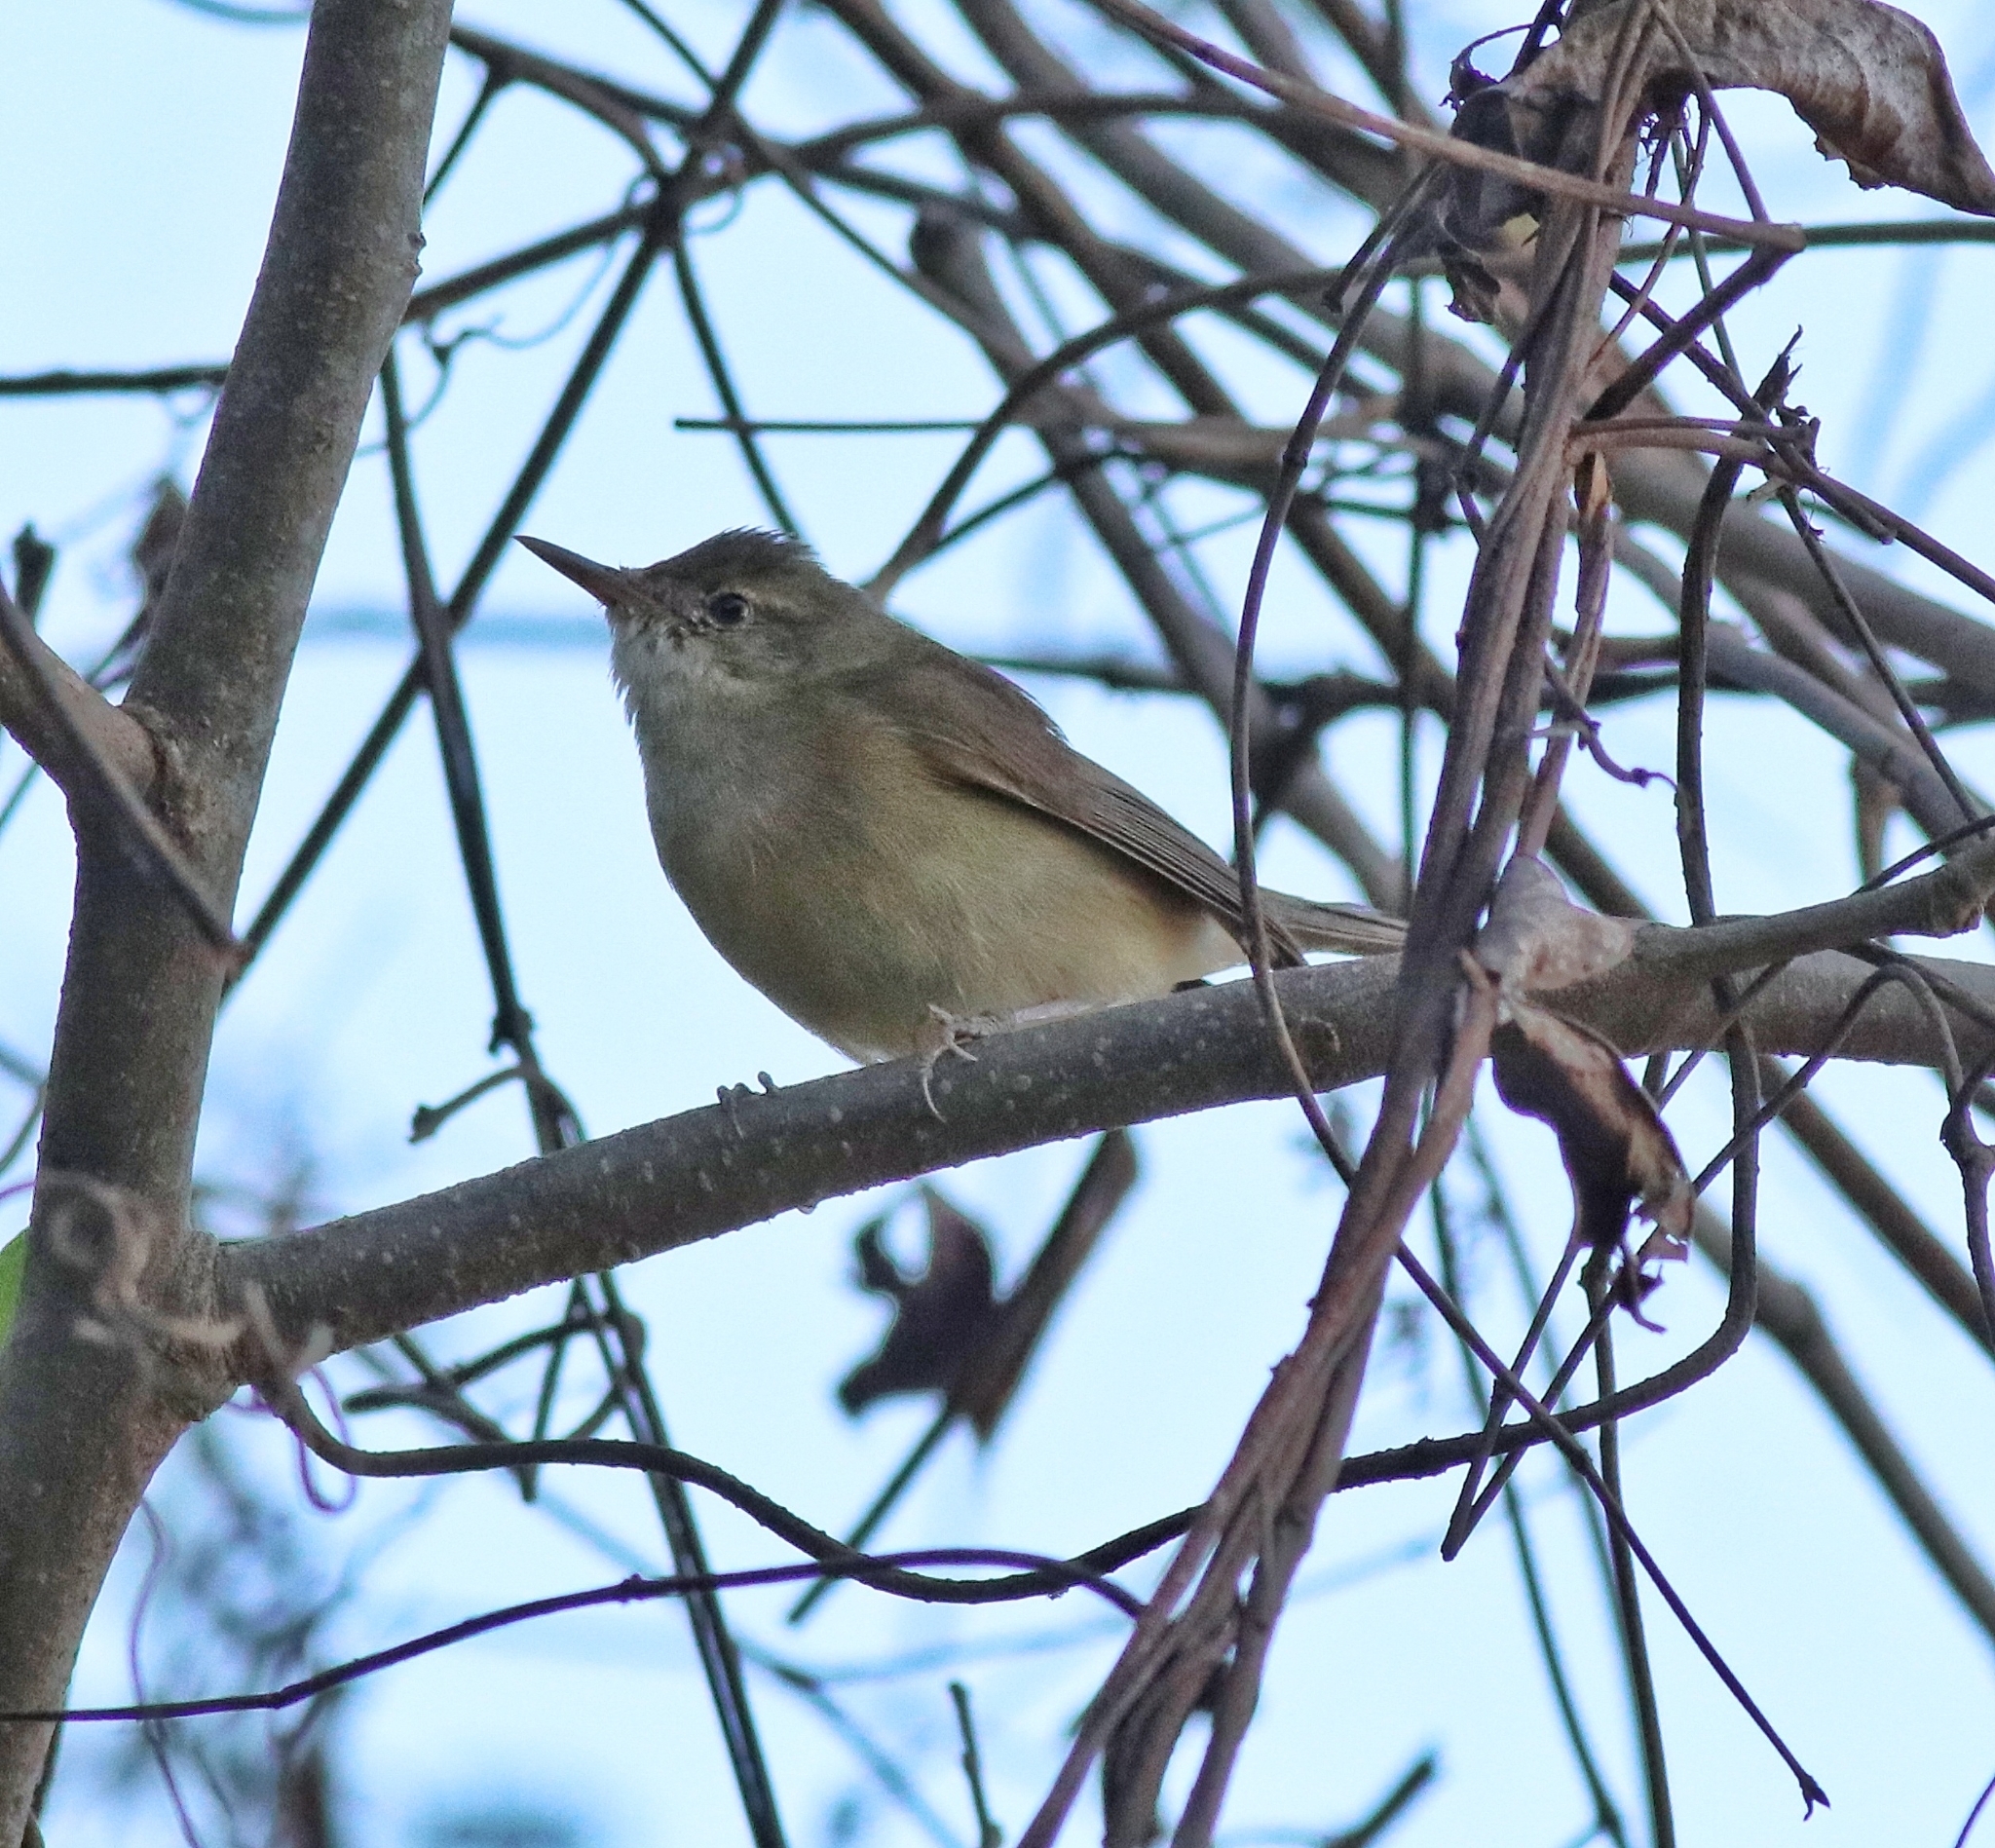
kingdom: Animalia
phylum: Chordata
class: Aves
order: Passeriformes
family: Acrocephalidae
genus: Acrocephalus
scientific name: Acrocephalus dumetorum
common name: Blyth's reed warbler
